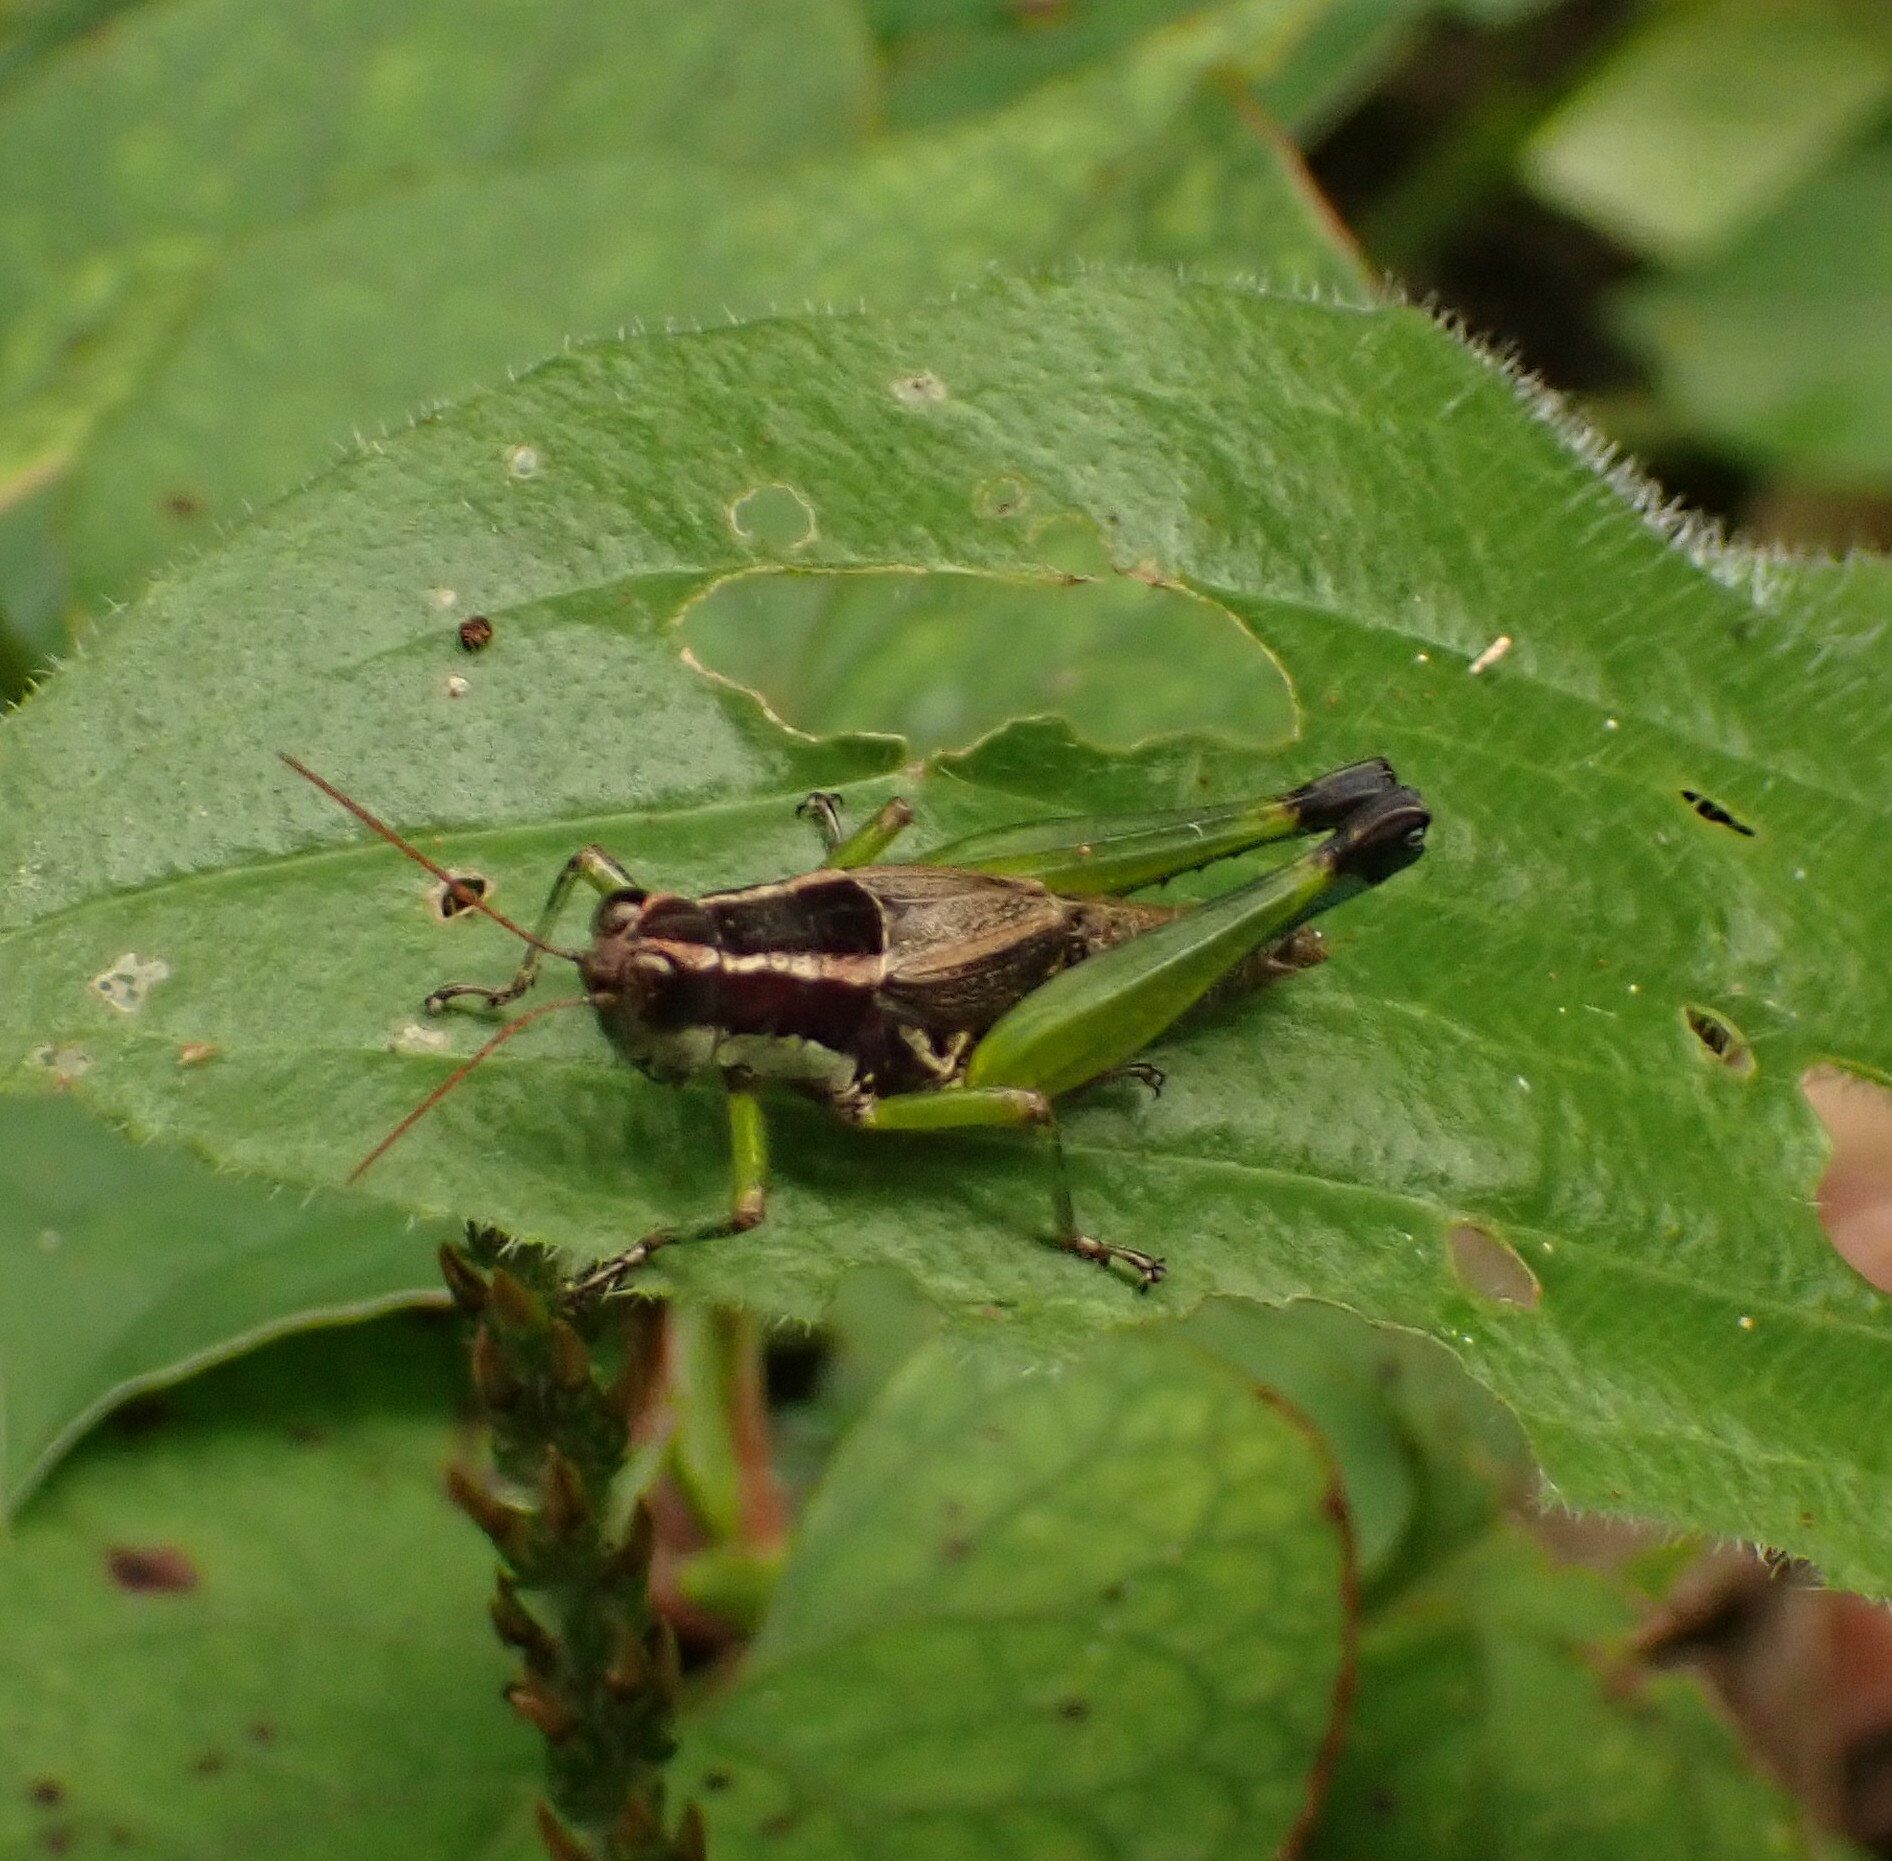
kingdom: Animalia
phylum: Arthropoda
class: Insecta
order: Orthoptera
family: Acrididae
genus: Digamacris
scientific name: Digamacris amoena
